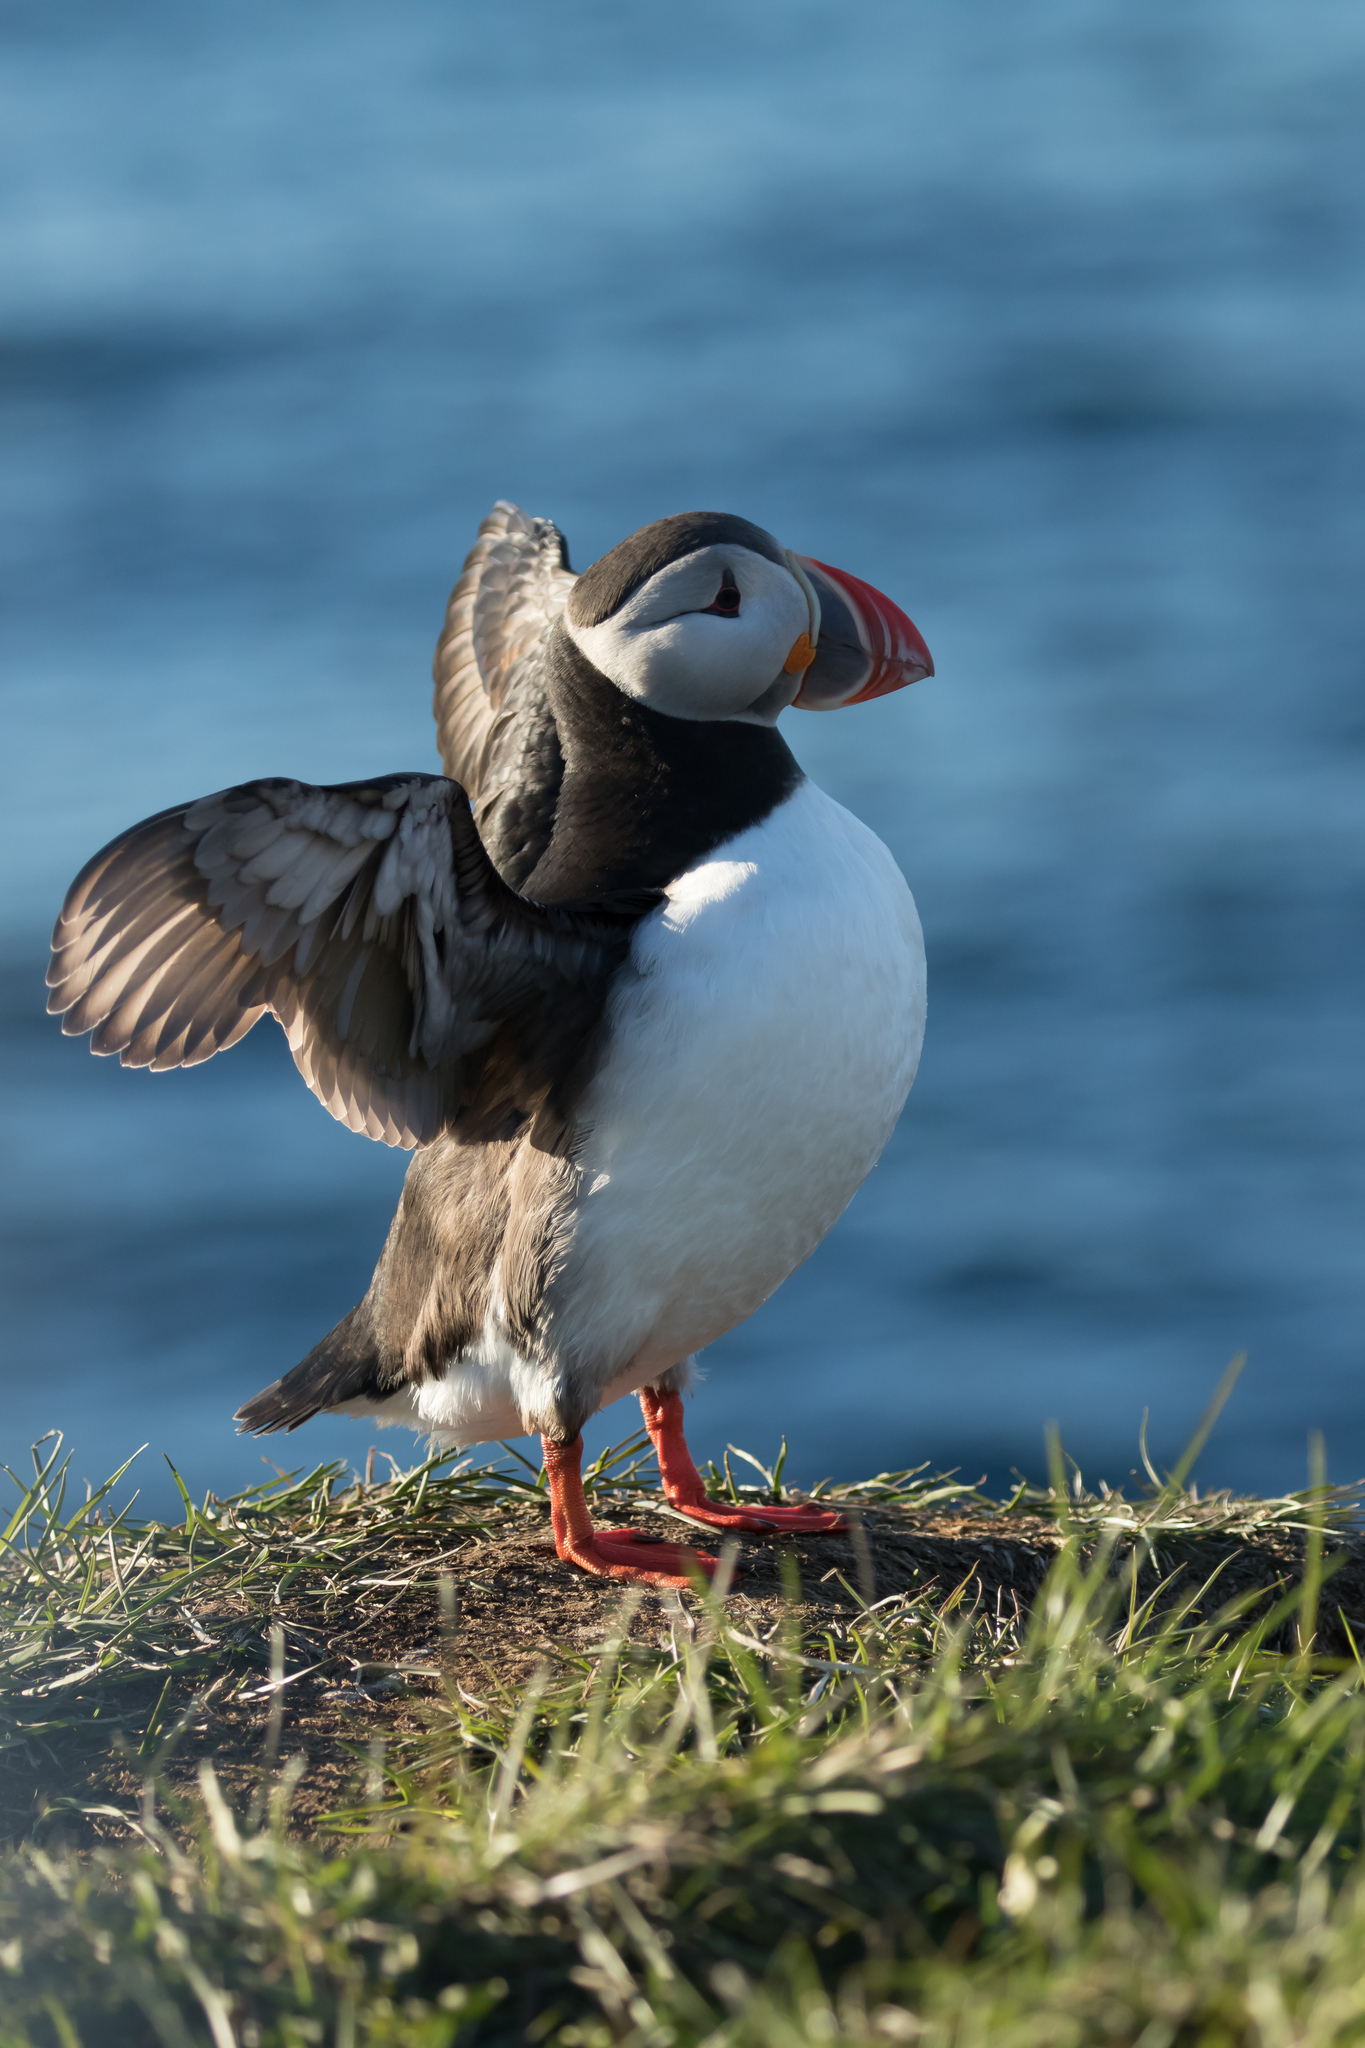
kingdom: Animalia
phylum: Chordata
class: Aves
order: Charadriiformes
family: Alcidae
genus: Fratercula
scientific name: Fratercula arctica
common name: Atlantic puffin
